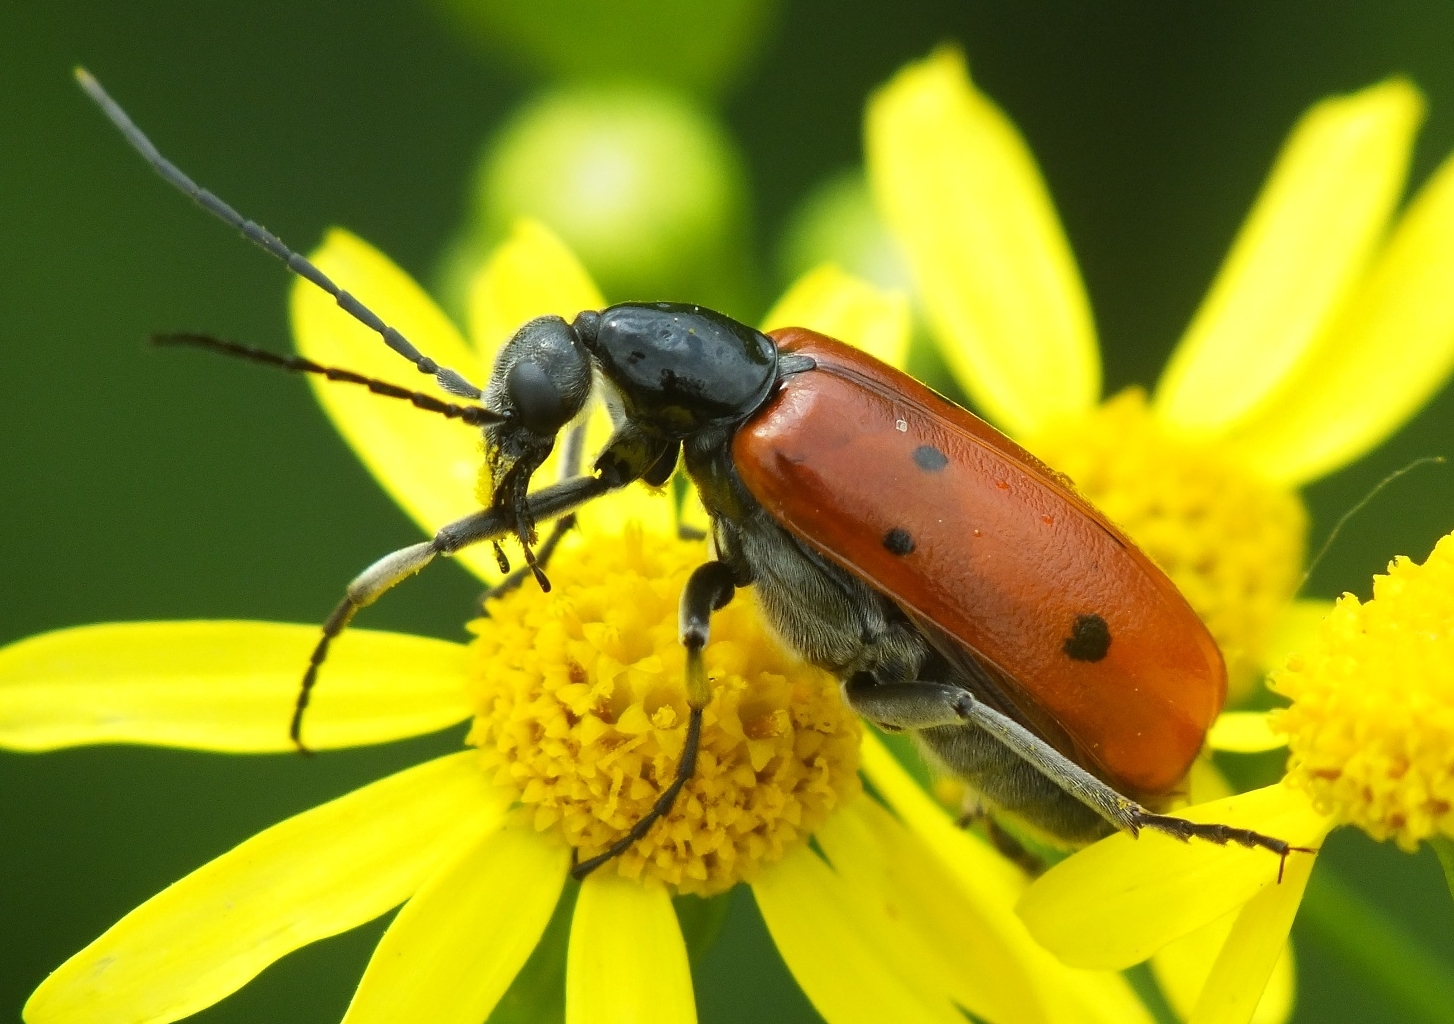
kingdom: Animalia
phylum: Arthropoda
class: Insecta
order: Coleoptera
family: Meloidae
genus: Stenodera
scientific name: Stenodera caucasica
